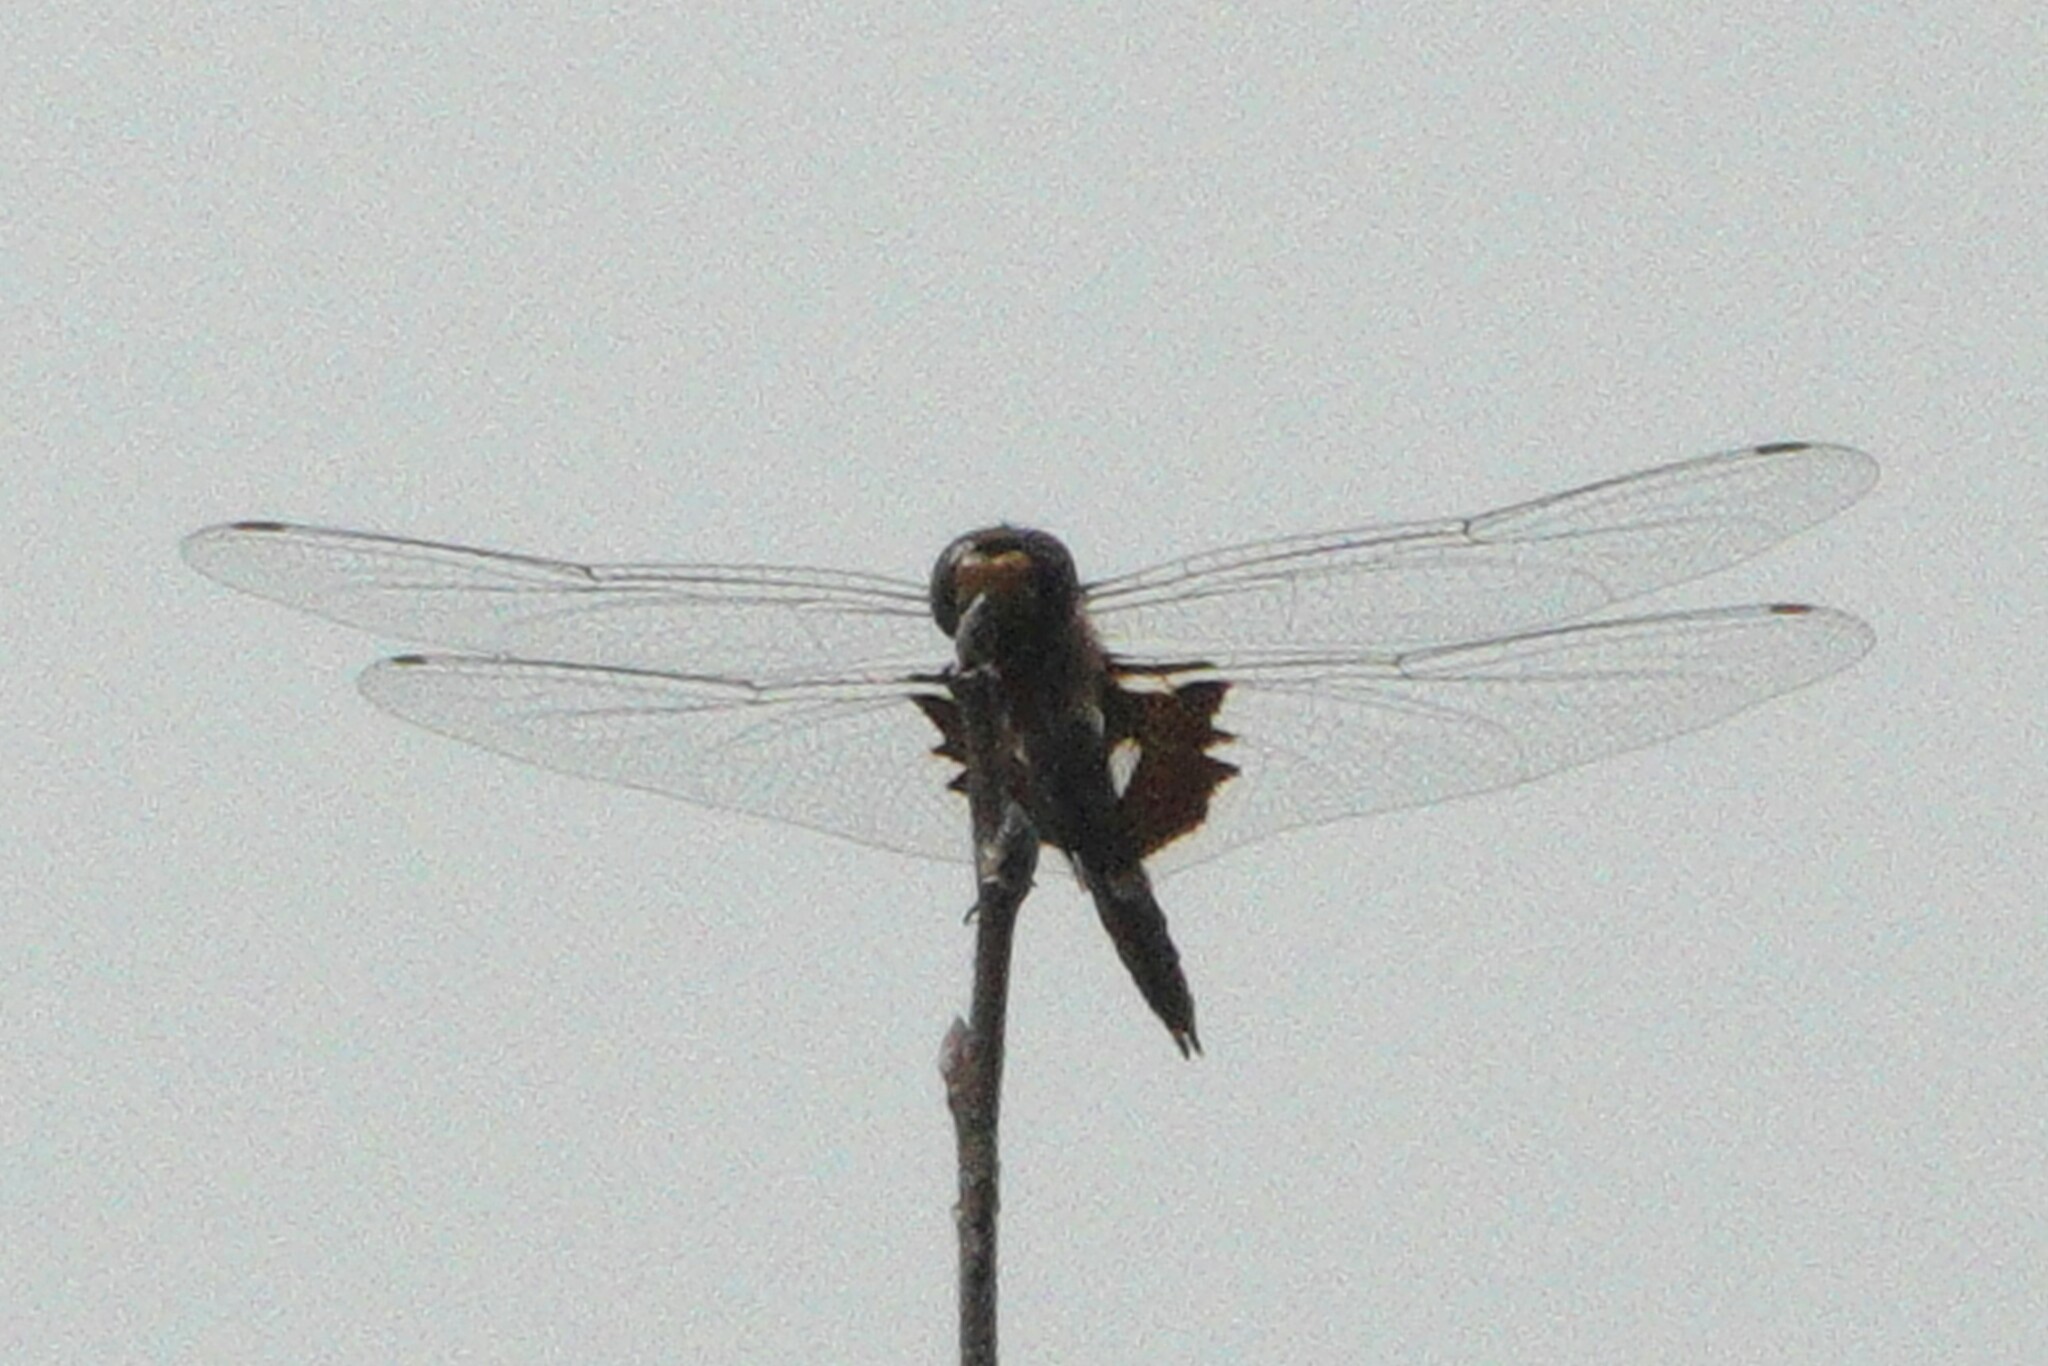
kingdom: Animalia
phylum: Arthropoda
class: Insecta
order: Odonata
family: Libellulidae
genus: Tramea
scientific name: Tramea onusta
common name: Red saddlebags
